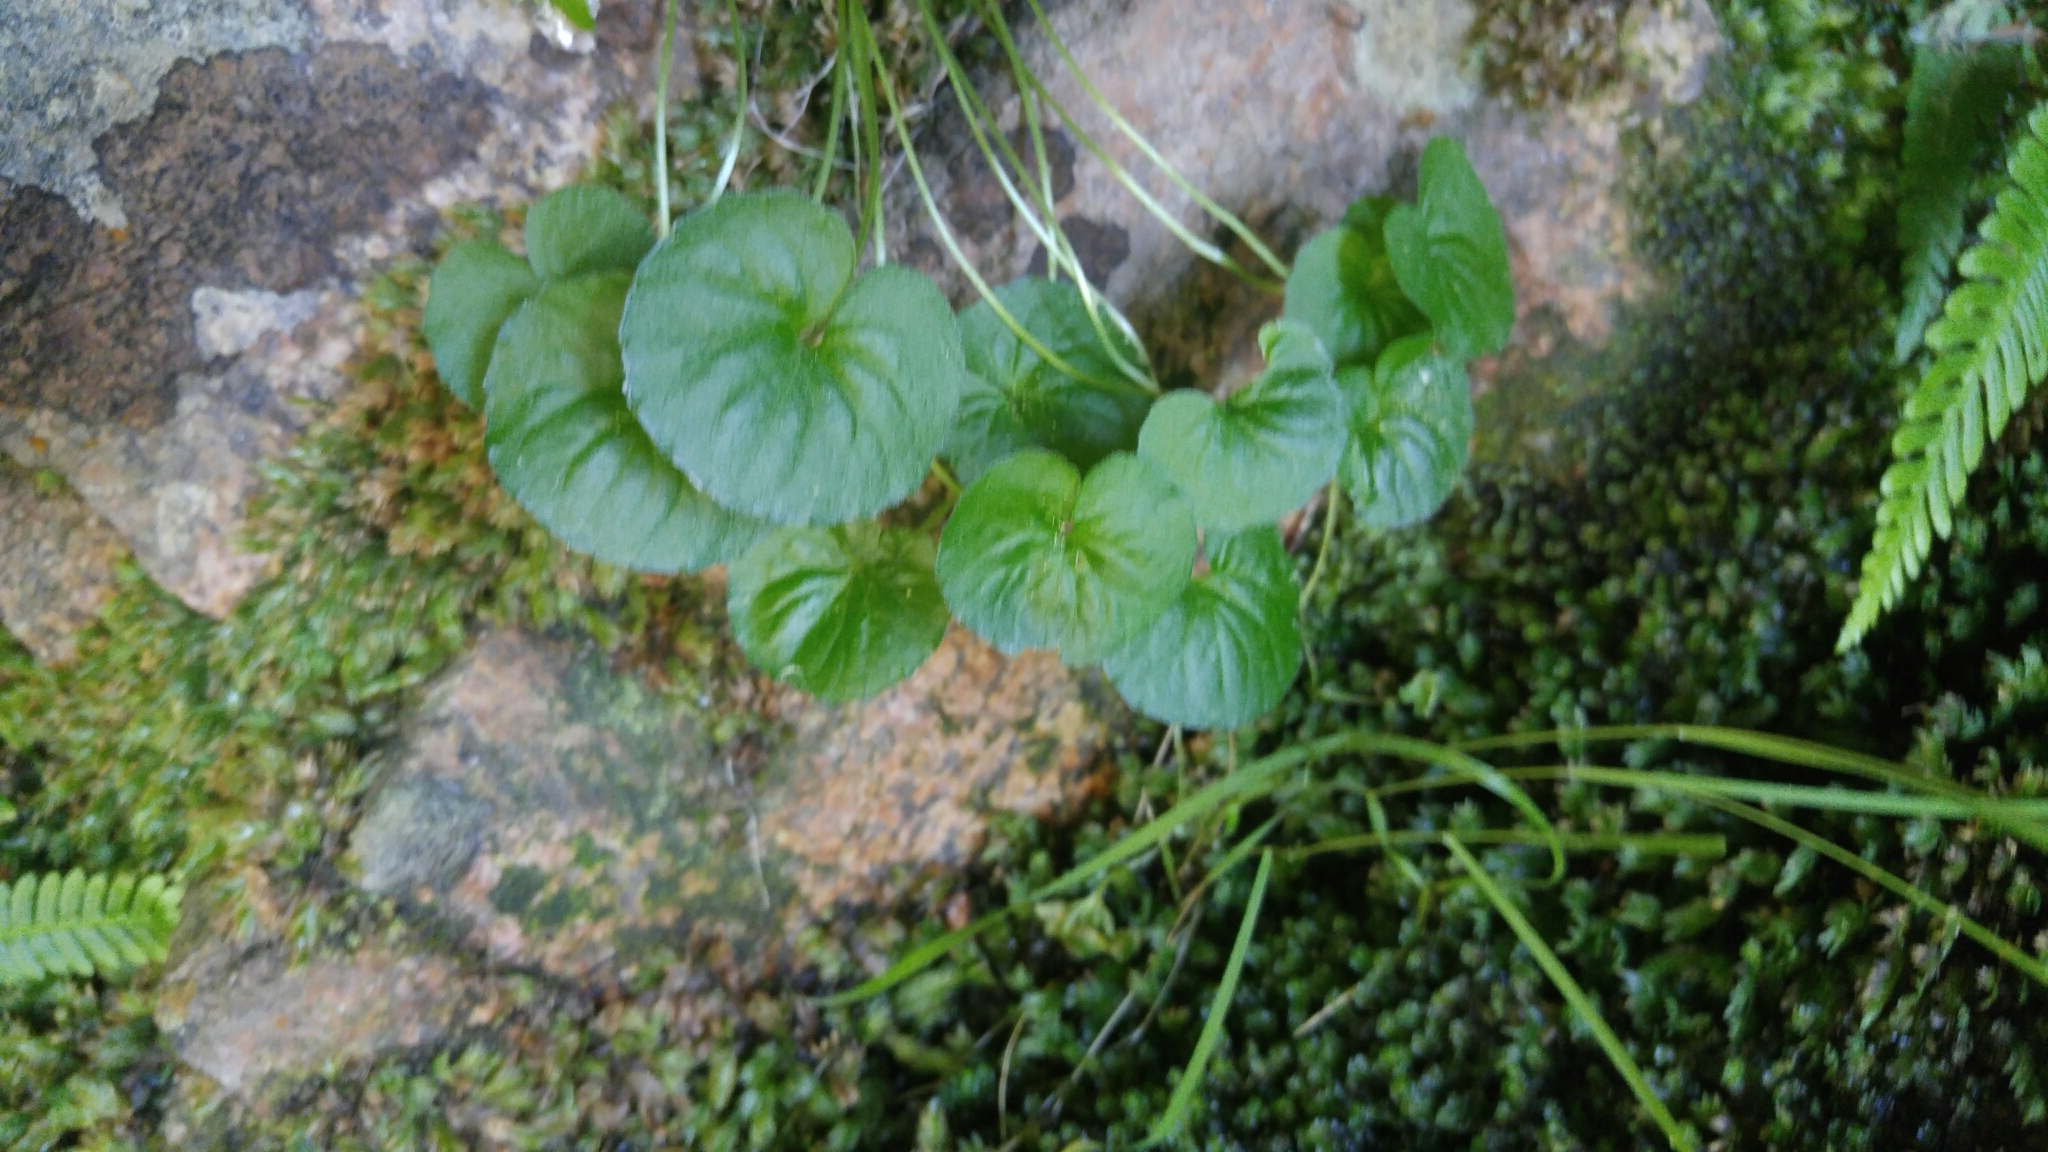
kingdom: Plantae
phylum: Tracheophyta
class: Magnoliopsida
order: Malpighiales
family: Violaceae
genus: Viola
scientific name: Viola biflora
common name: Alpine yellow violet
